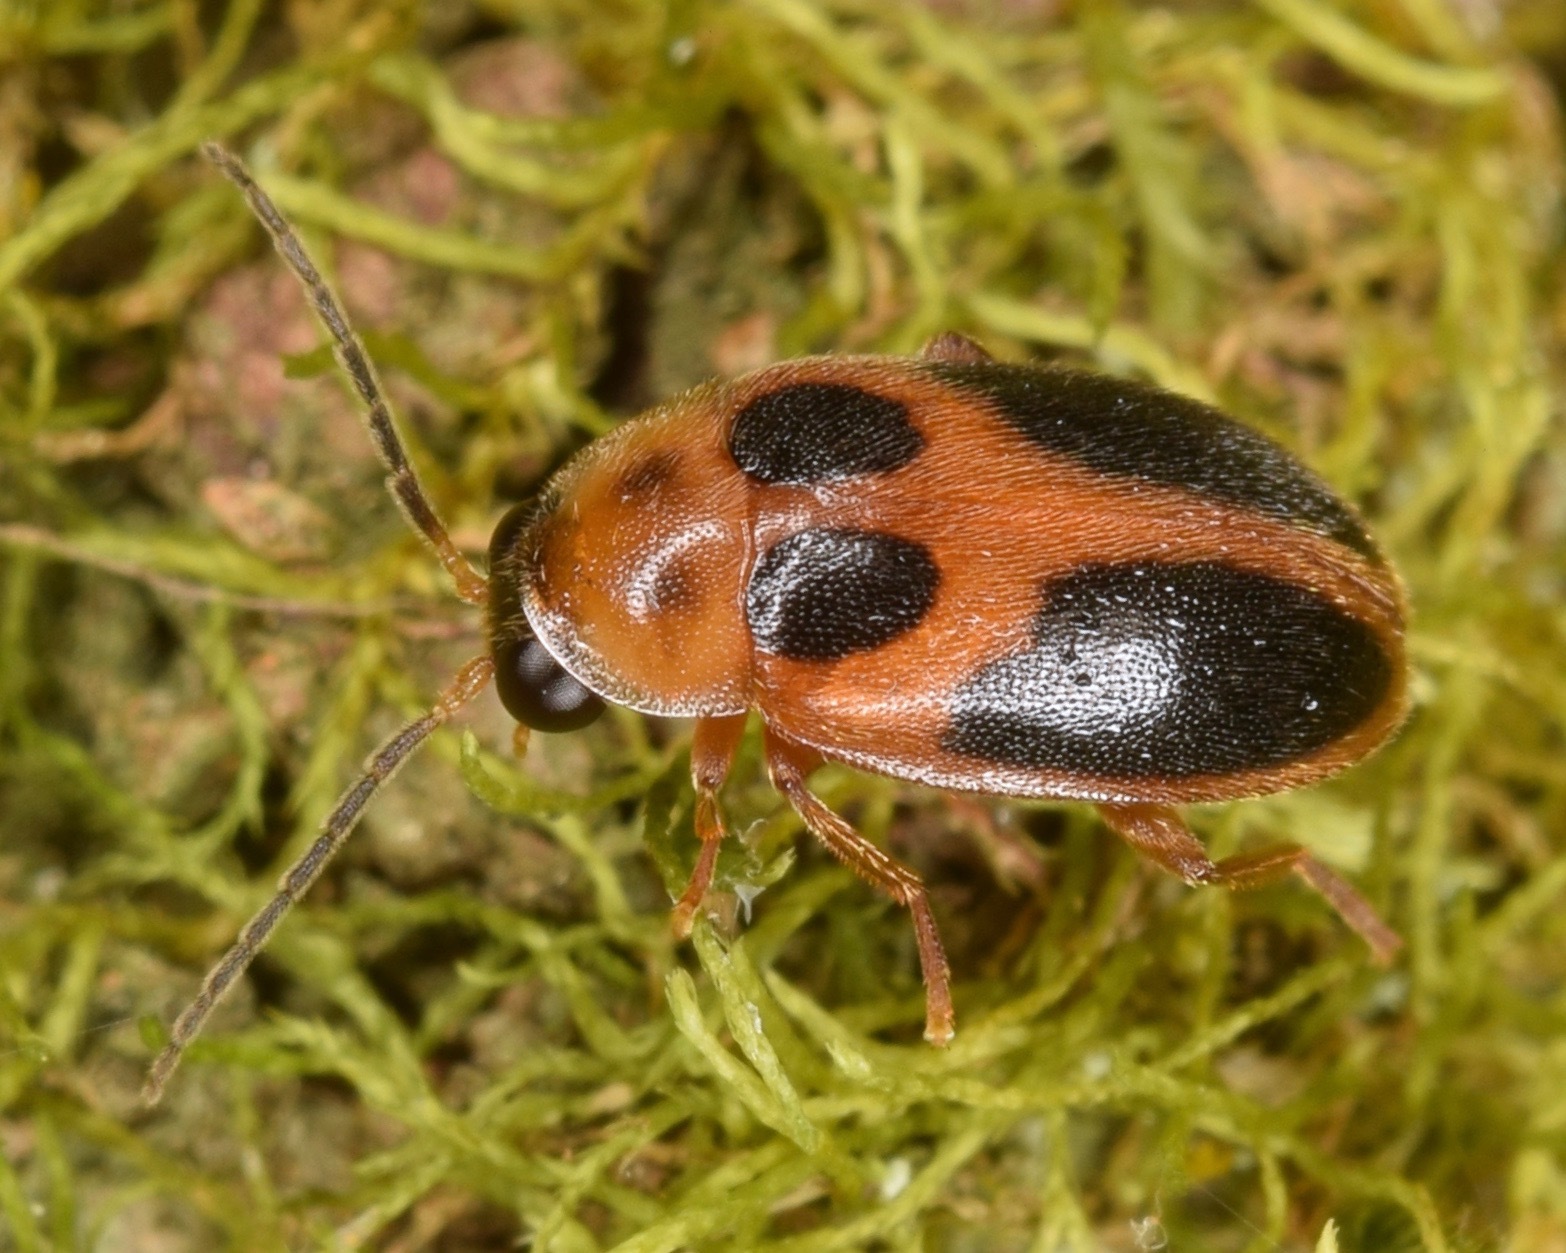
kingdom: Animalia
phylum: Arthropoda
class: Insecta
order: Coleoptera
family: Scirtidae
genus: Sacodes
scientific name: Sacodes pulchella
